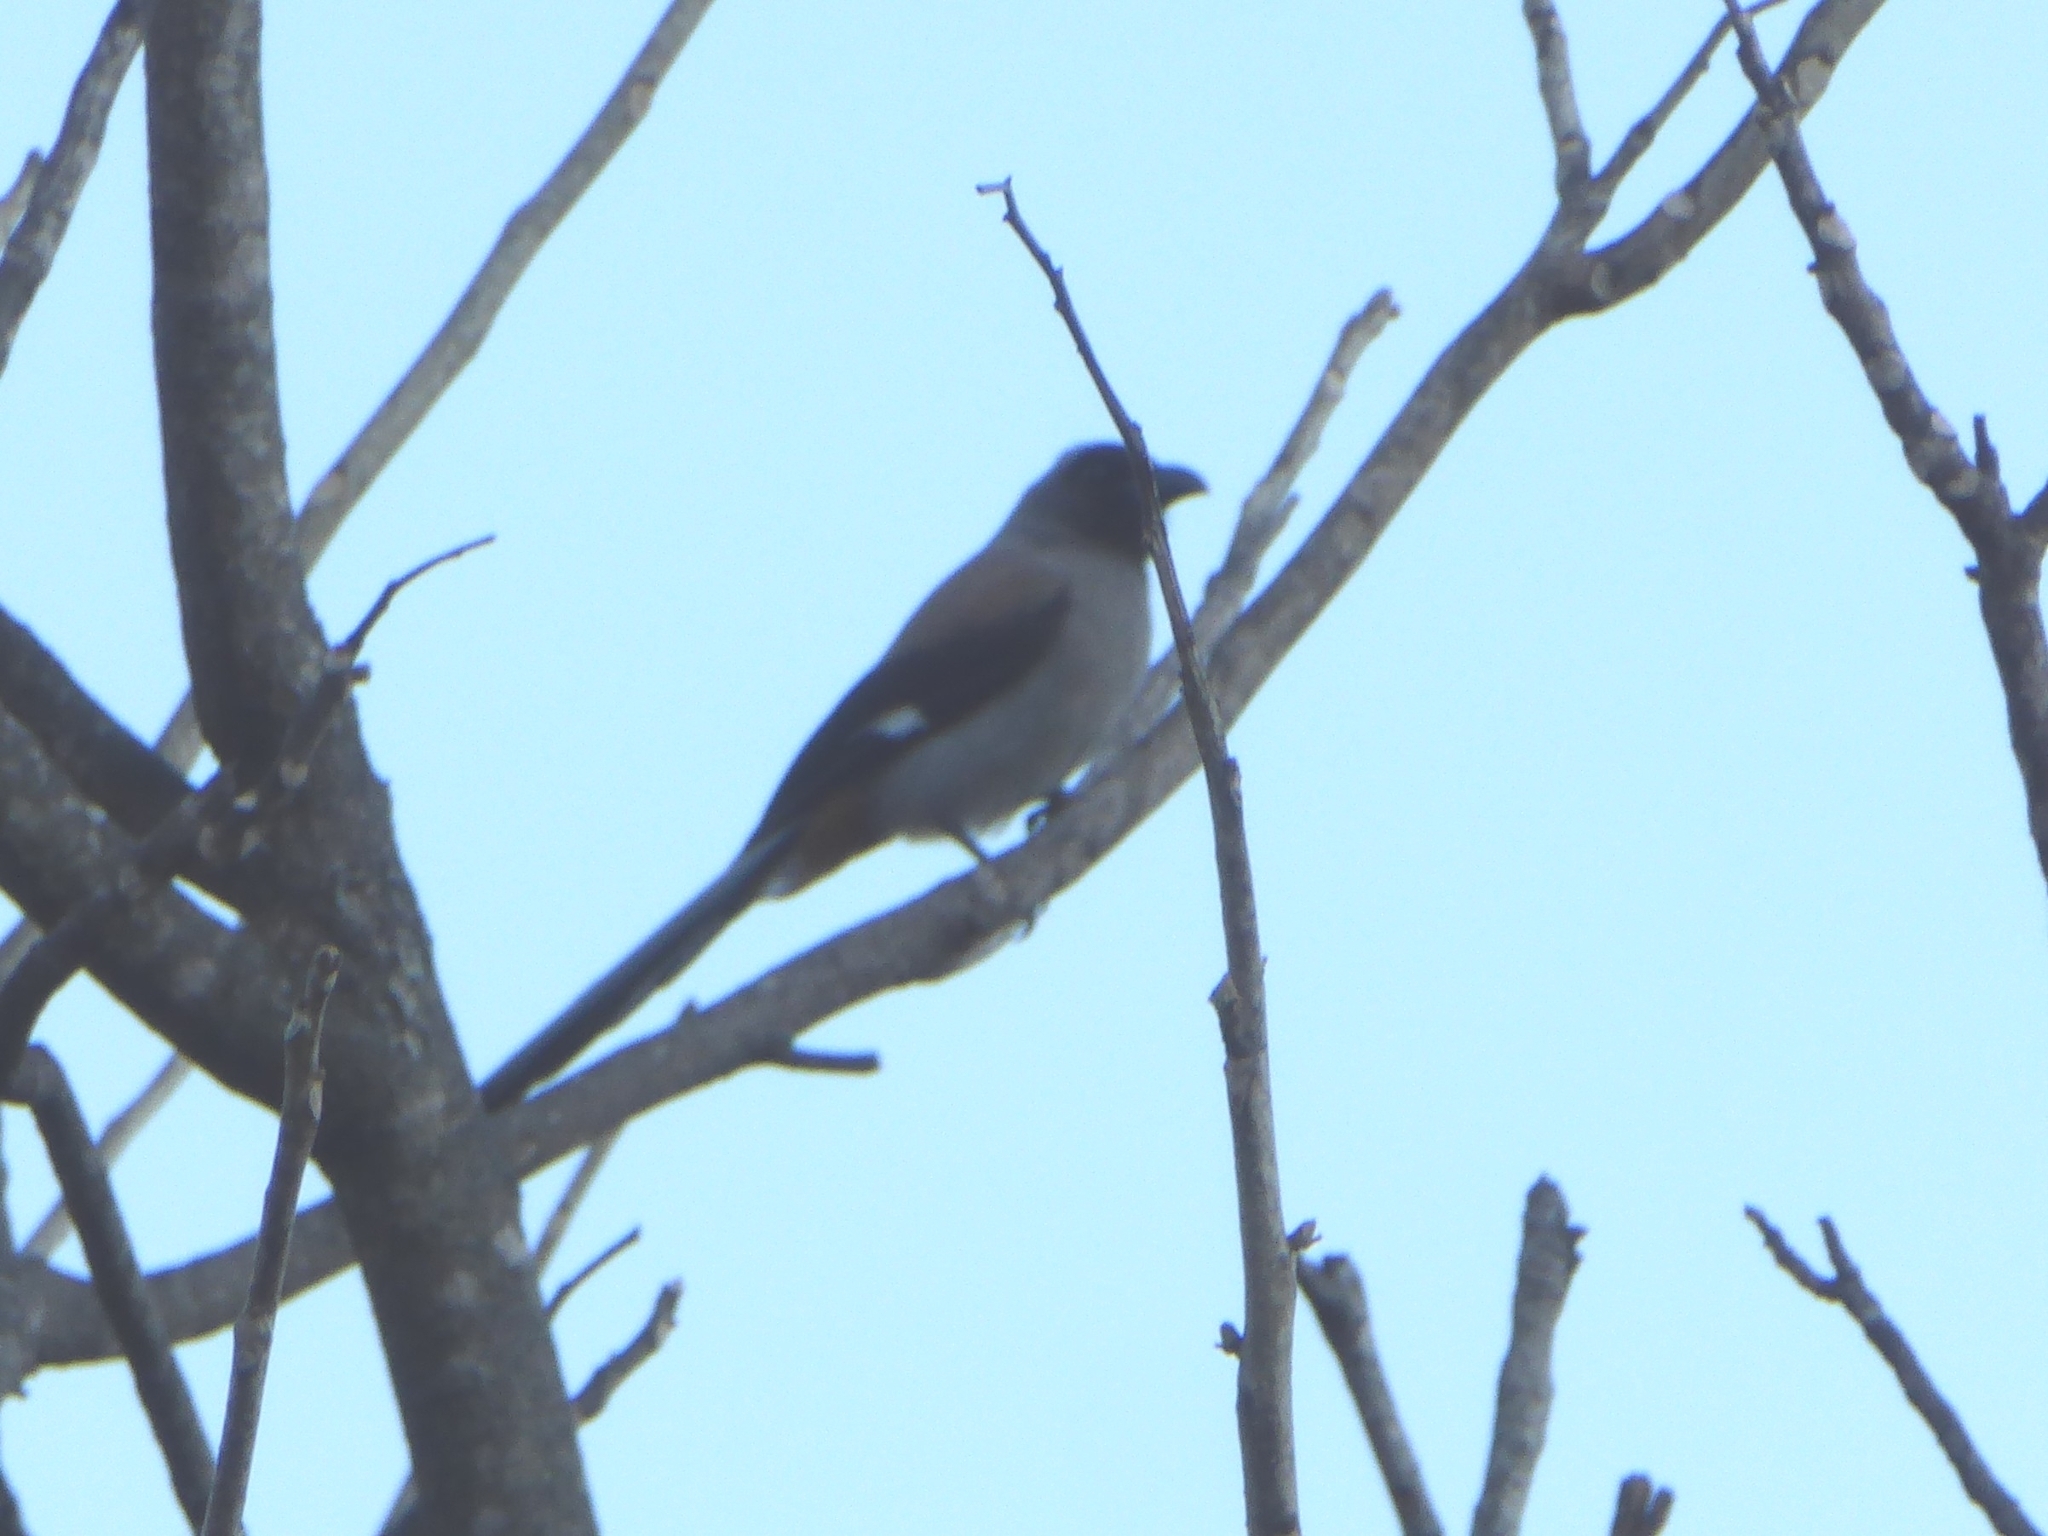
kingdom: Animalia
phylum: Chordata
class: Aves
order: Passeriformes
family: Corvidae
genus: Dendrocitta
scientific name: Dendrocitta formosae
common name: Grey treepie
